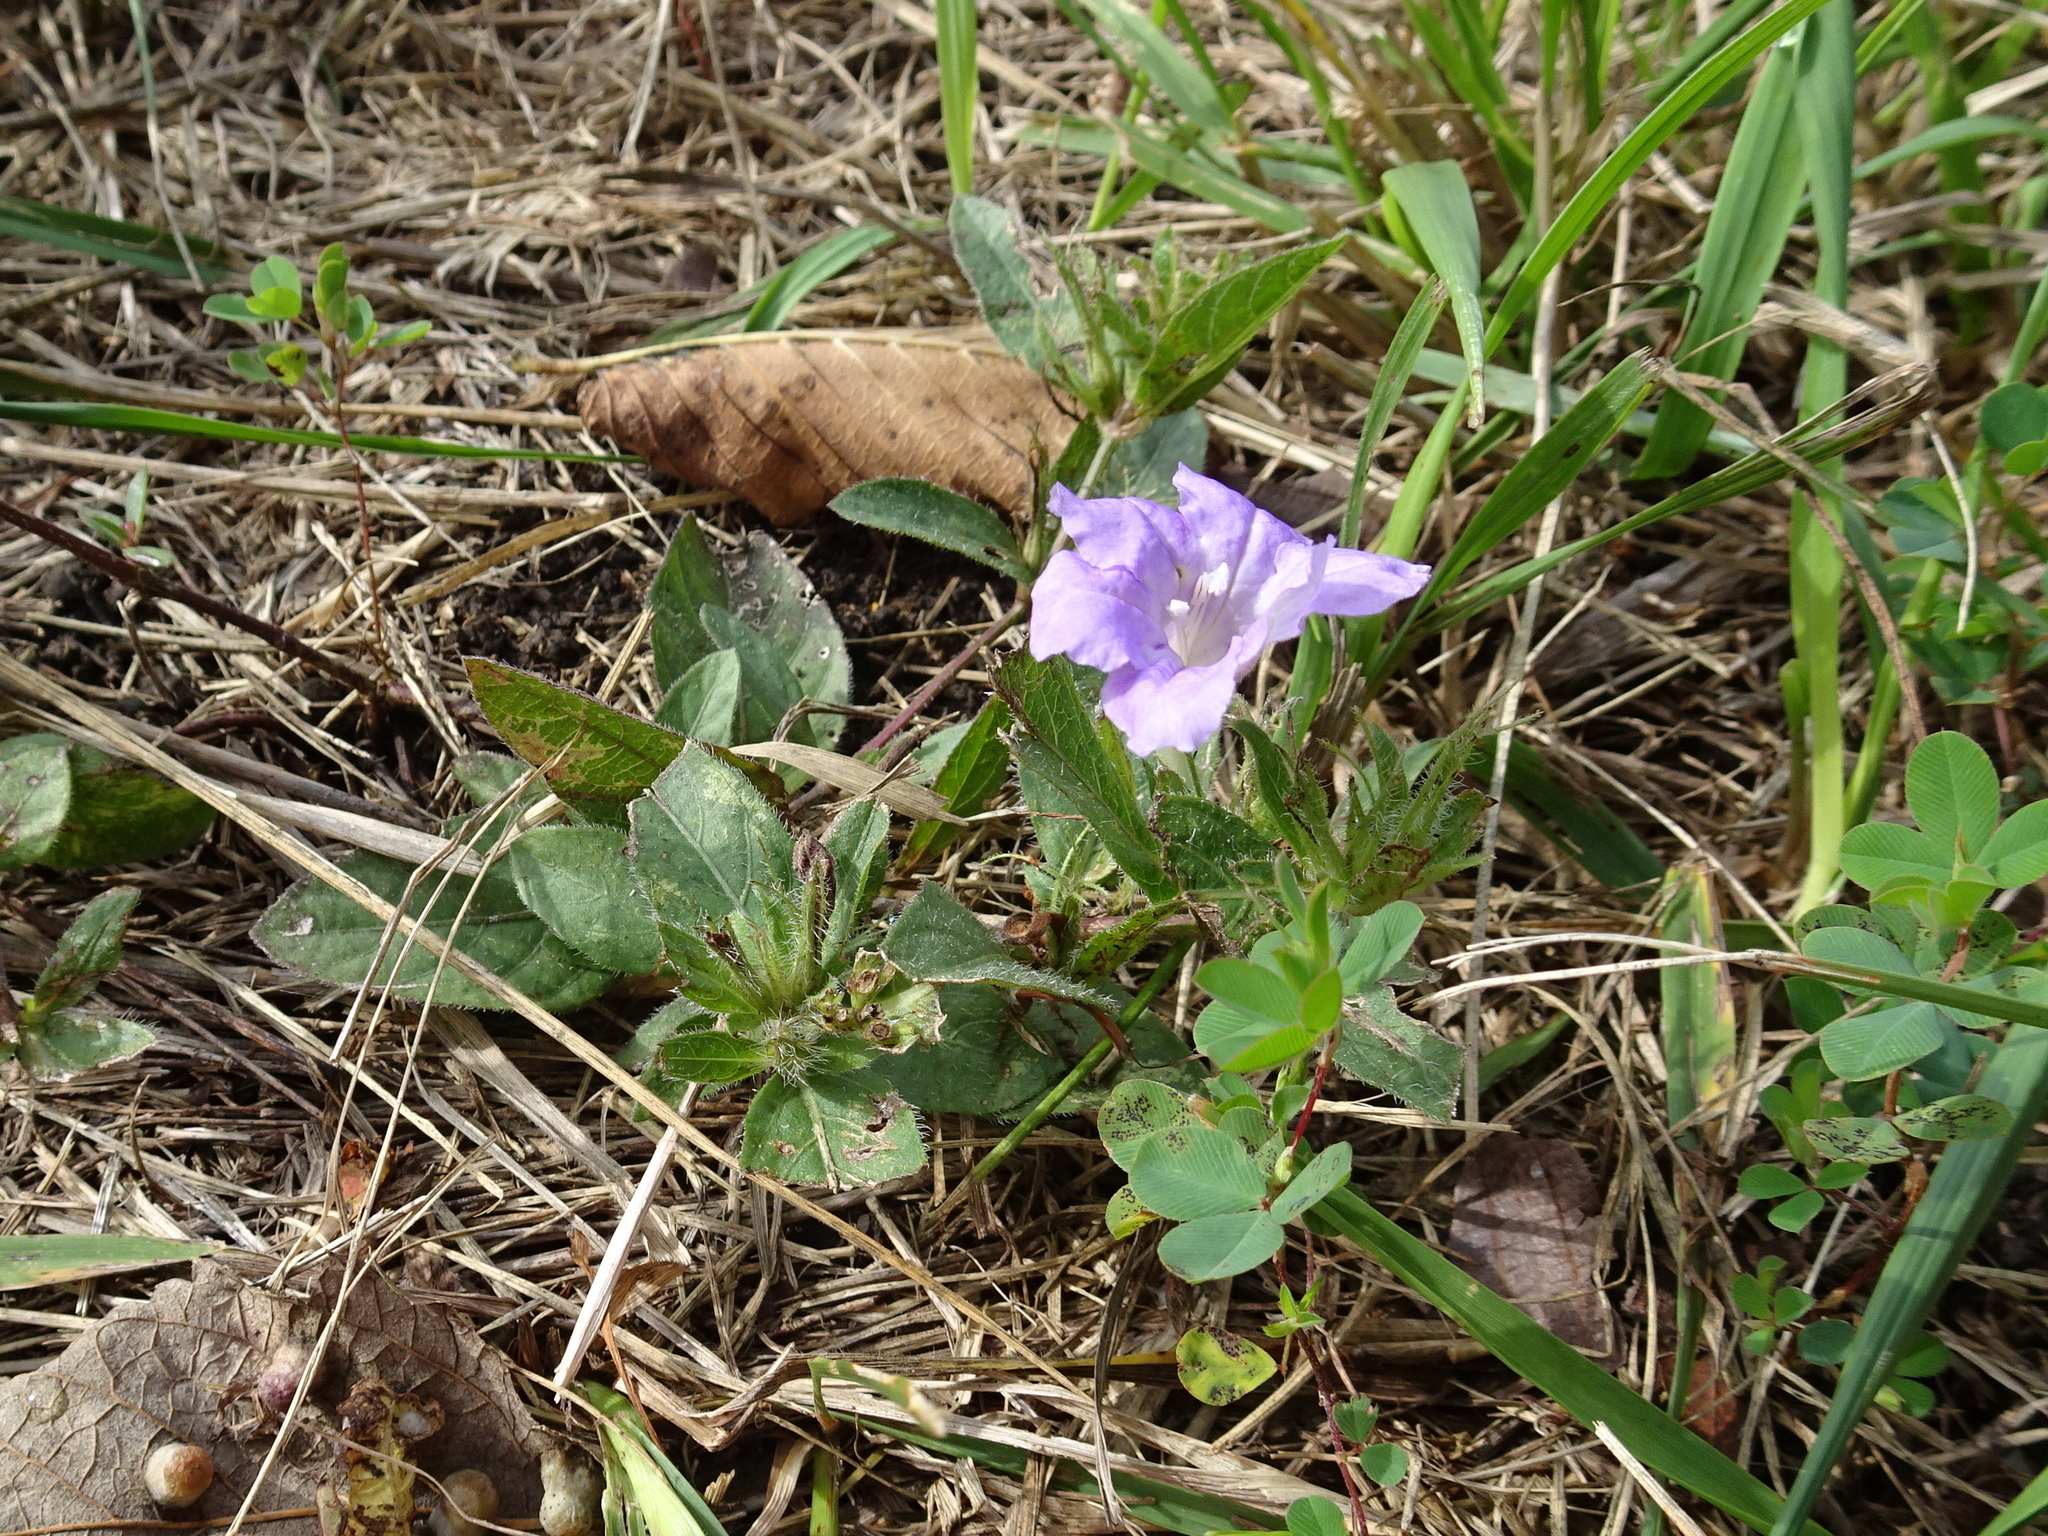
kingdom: Plantae
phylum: Tracheophyta
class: Magnoliopsida
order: Lamiales
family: Acanthaceae
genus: Ruellia
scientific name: Ruellia humilis
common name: Fringe-leaf ruellia
